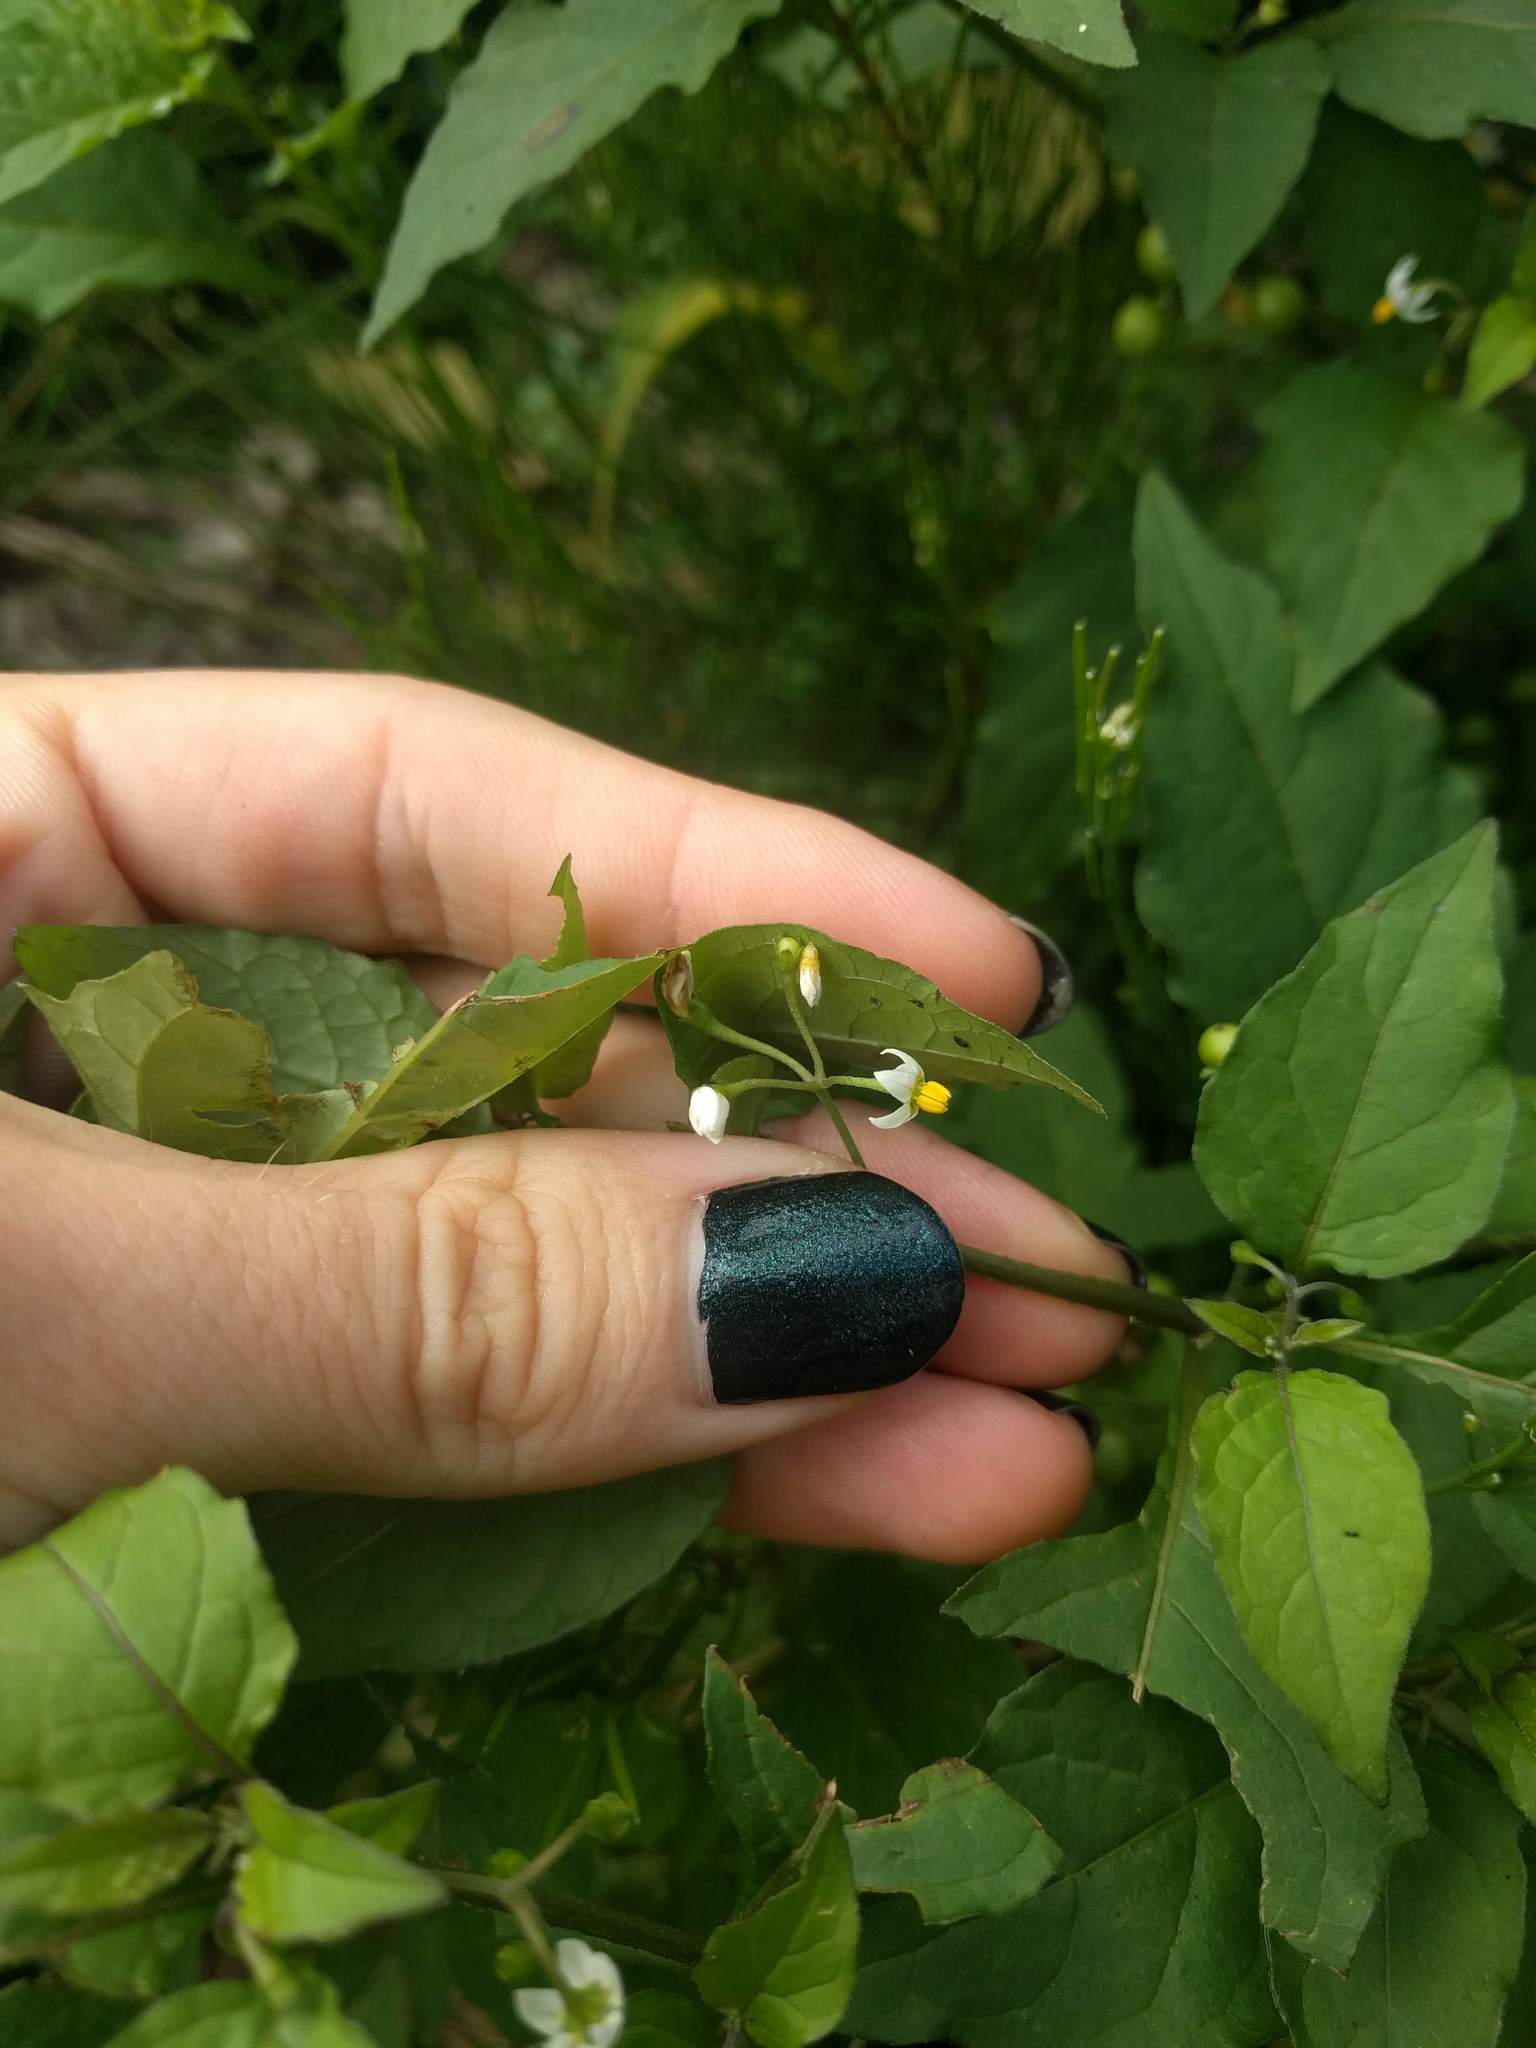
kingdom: Plantae
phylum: Tracheophyta
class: Magnoliopsida
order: Solanales
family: Solanaceae
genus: Solanum
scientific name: Solanum americanum
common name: American black nightshade
